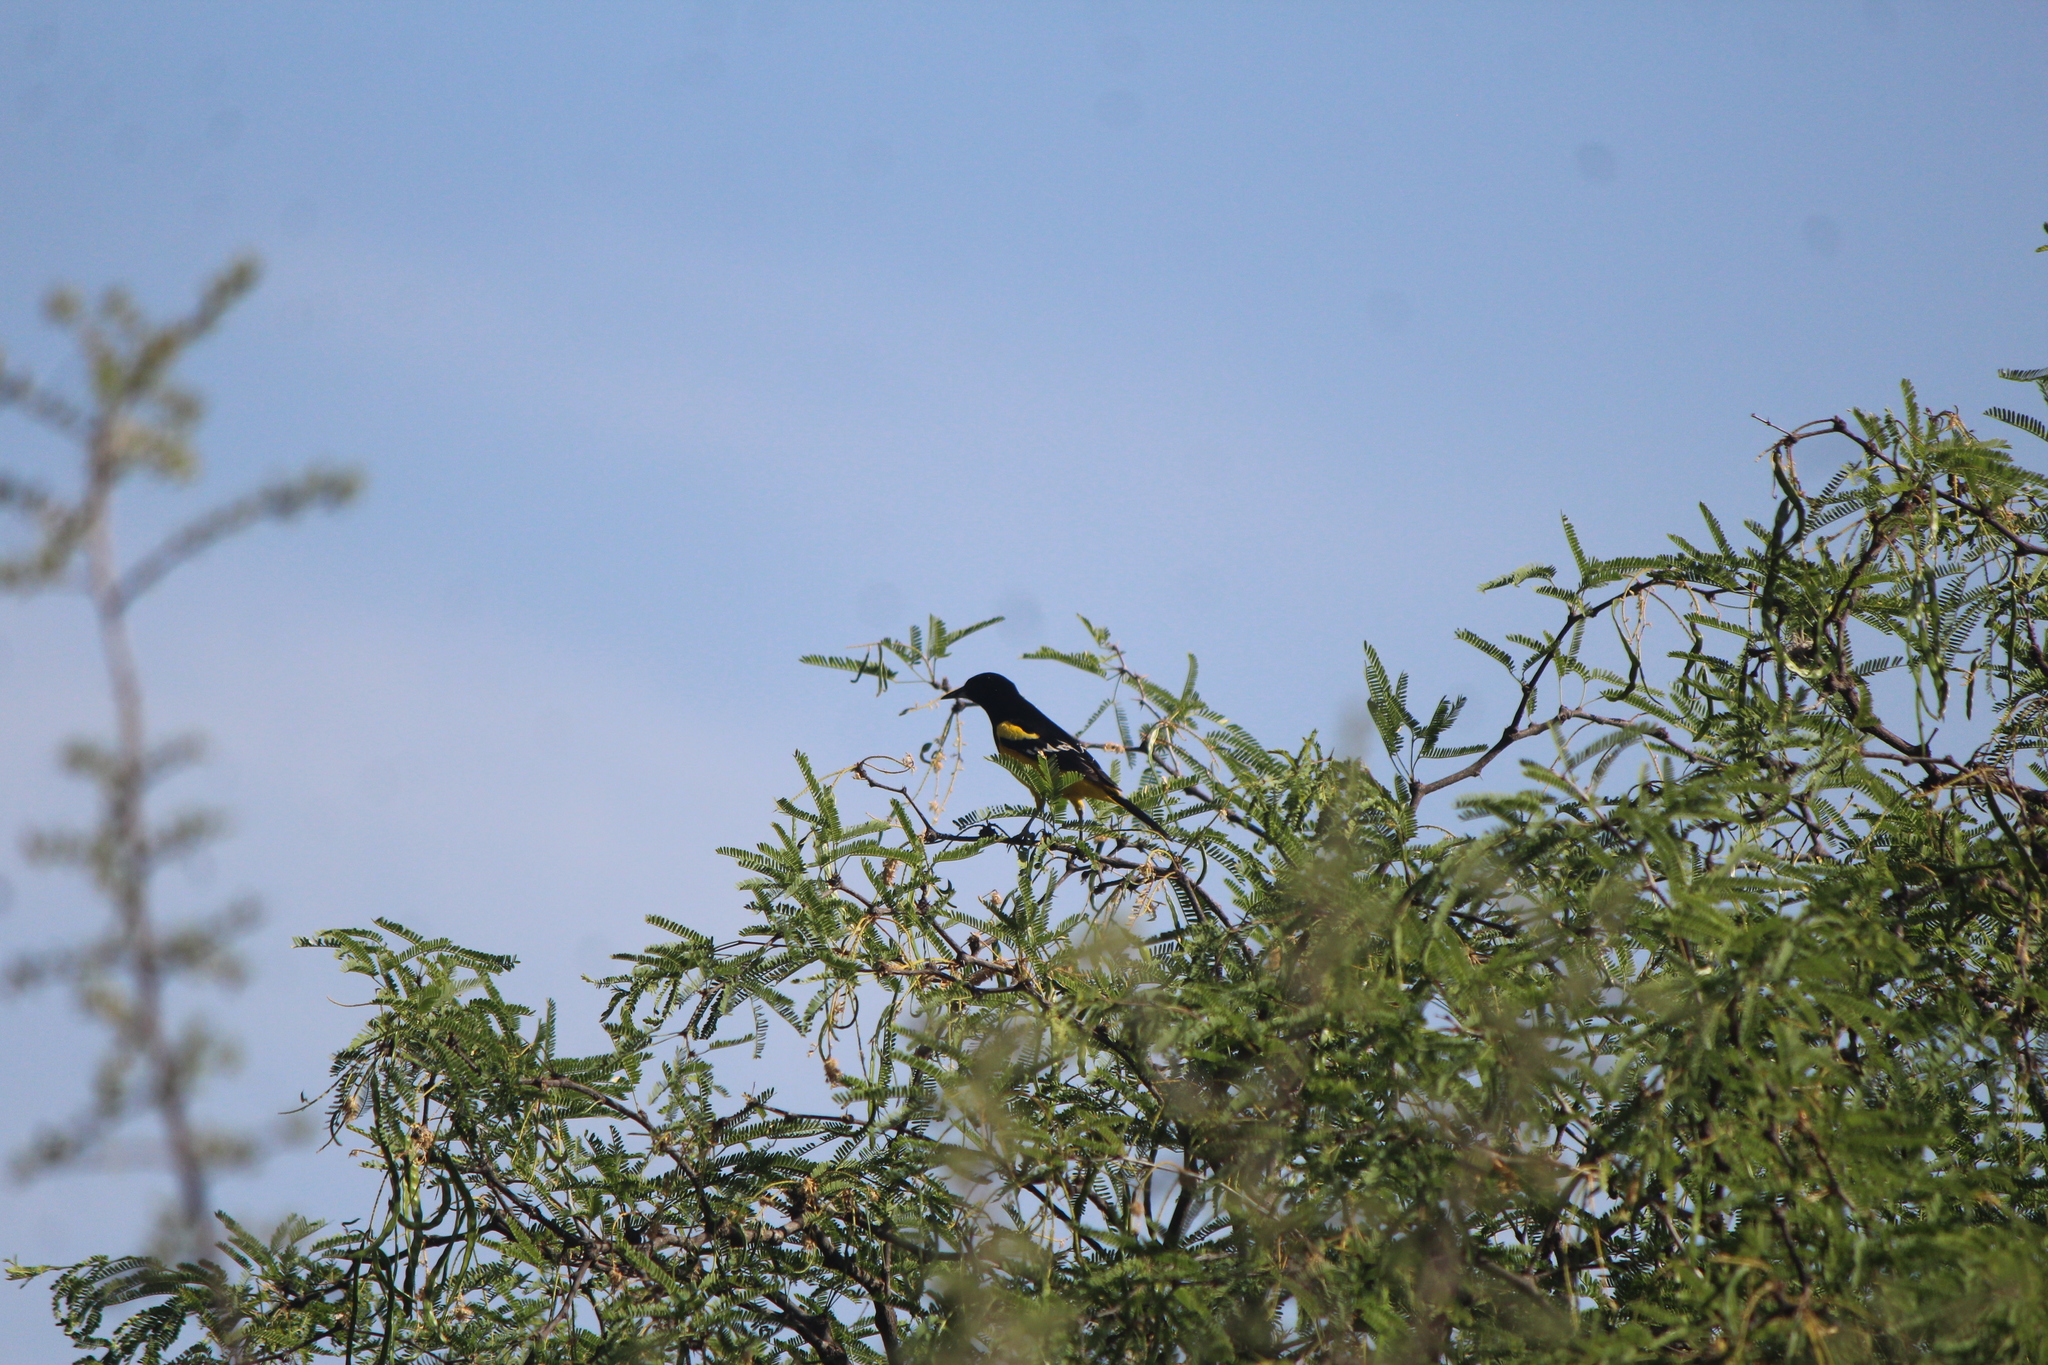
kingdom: Animalia
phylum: Chordata
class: Aves
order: Passeriformes
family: Icteridae
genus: Icterus
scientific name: Icterus parisorum
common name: Scott's oriole
